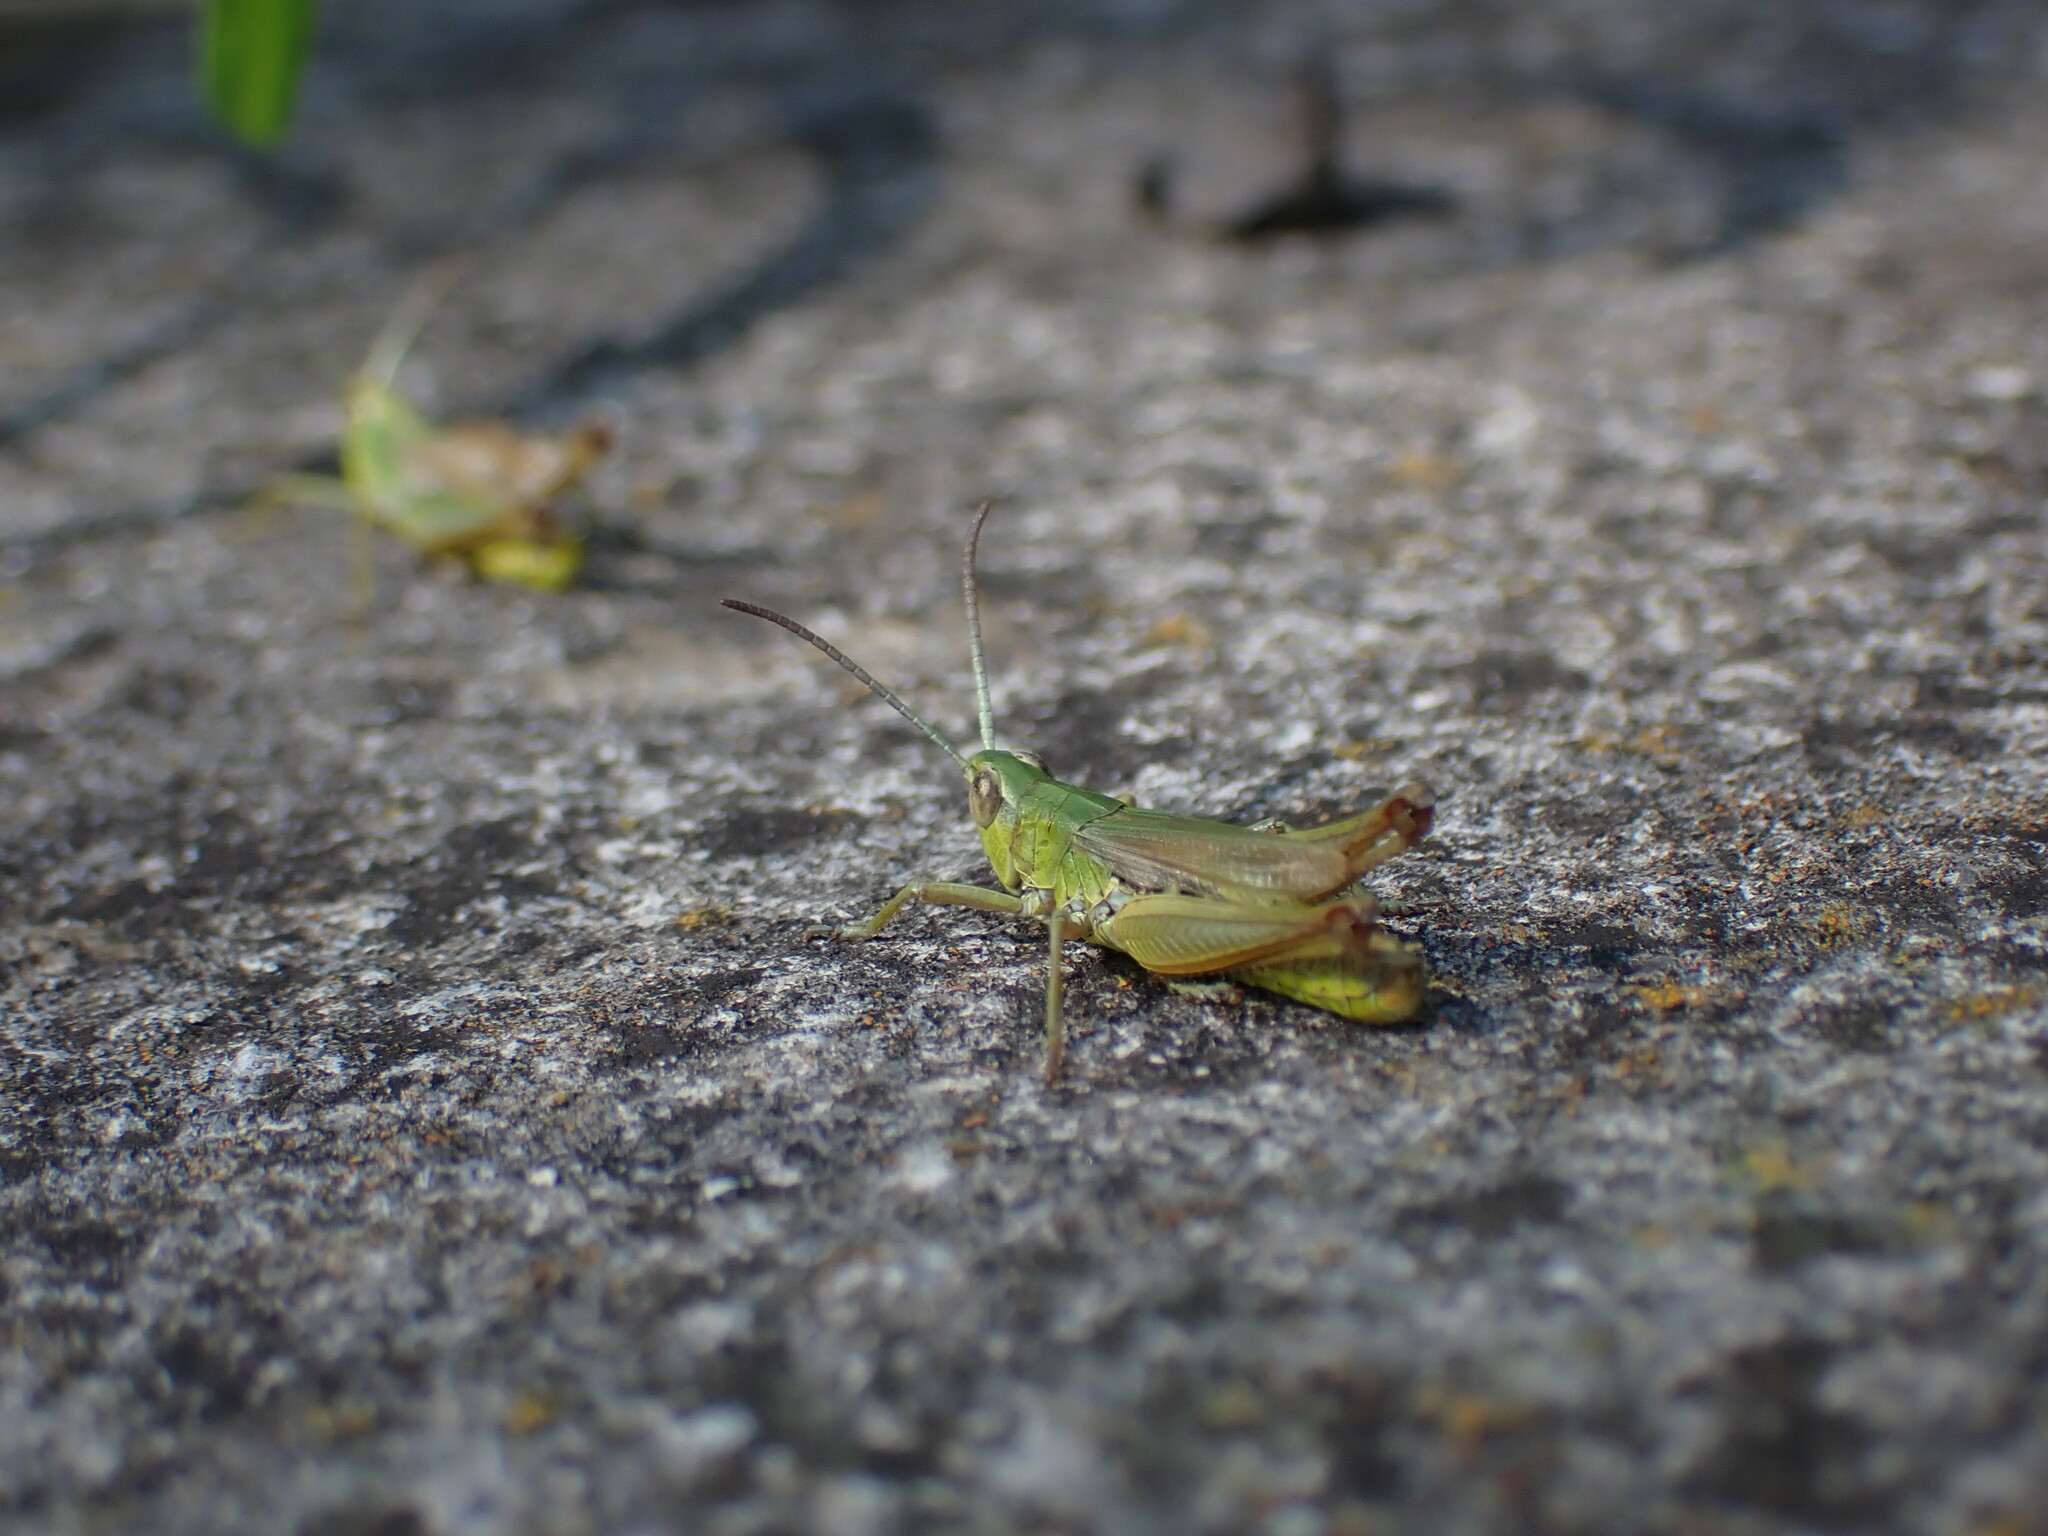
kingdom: Animalia
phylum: Arthropoda
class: Insecta
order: Orthoptera
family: Acrididae
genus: Pseudochorthippus
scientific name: Pseudochorthippus parallelus
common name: Meadow grasshopper
